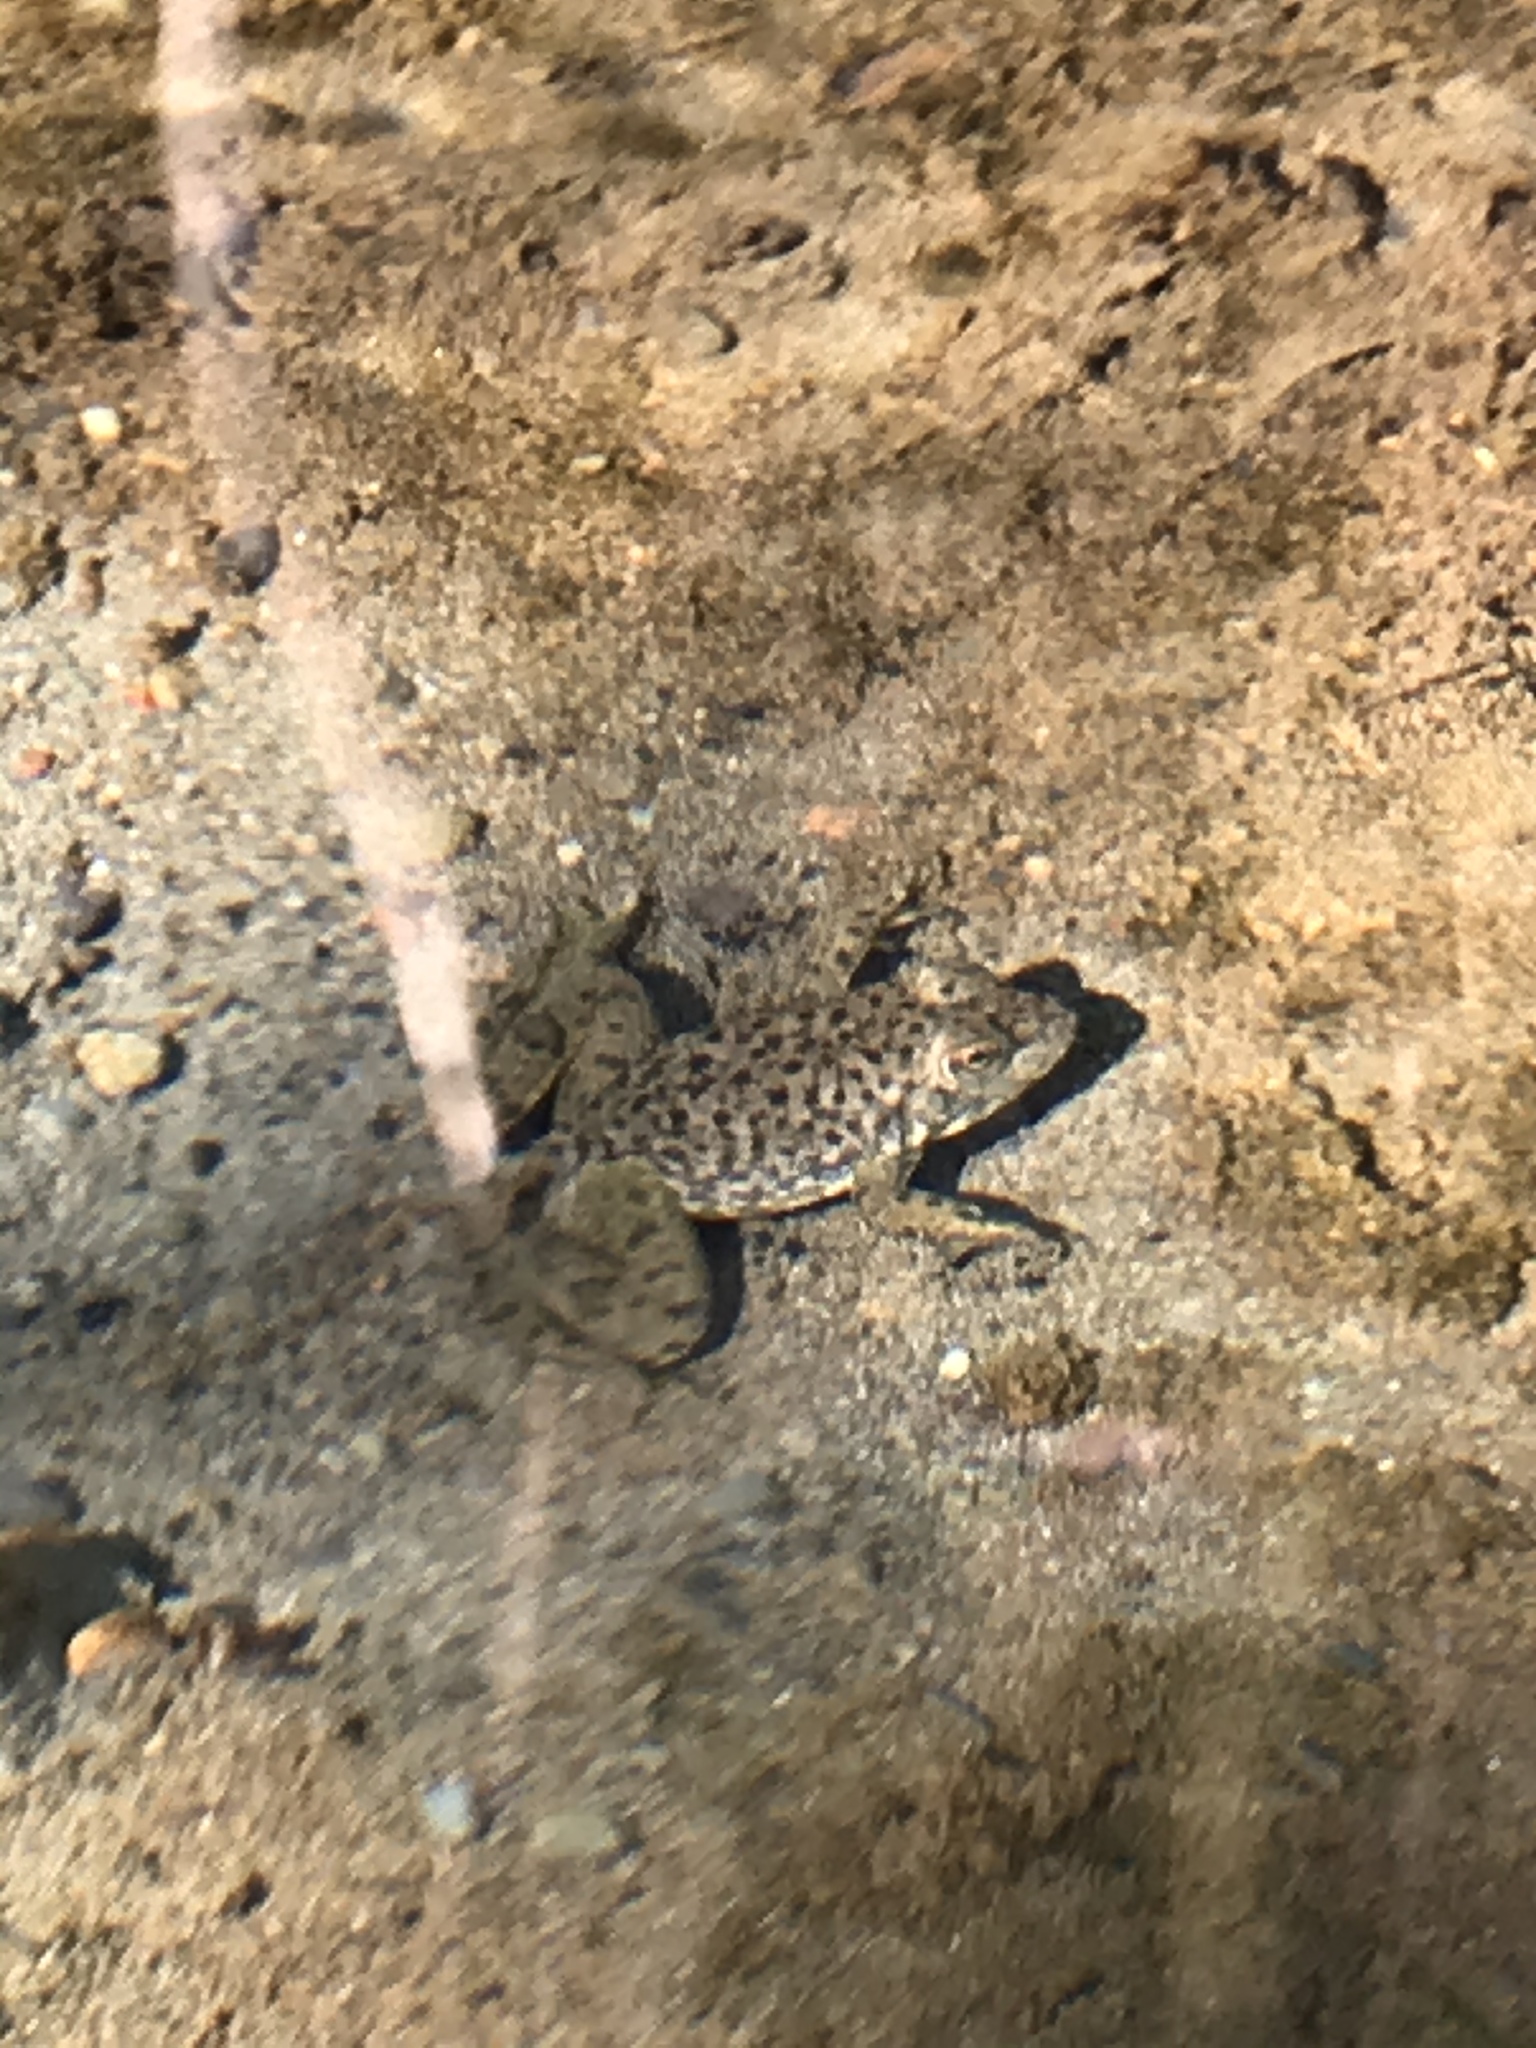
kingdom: Animalia
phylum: Chordata
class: Amphibia
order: Anura
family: Ranidae
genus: Lithobates
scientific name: Lithobates catesbeianus
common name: American bullfrog
